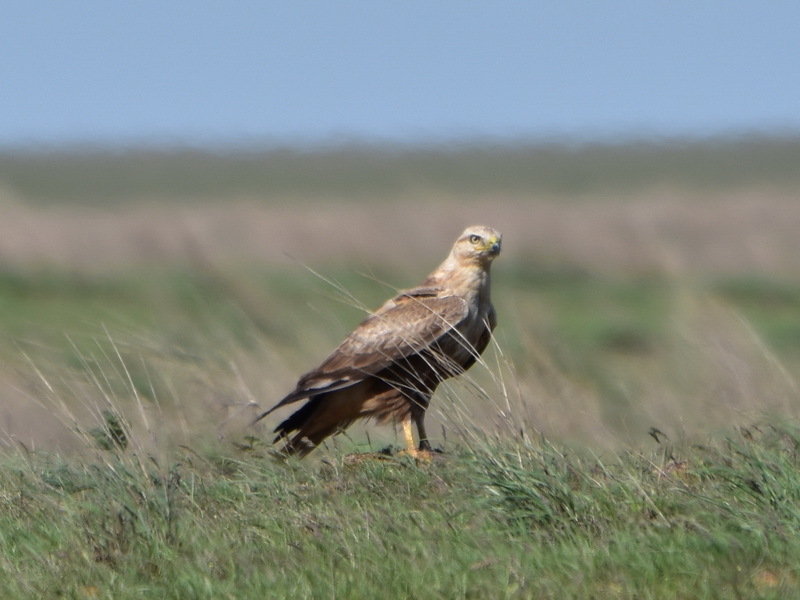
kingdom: Animalia
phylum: Chordata
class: Aves
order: Accipitriformes
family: Accipitridae
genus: Buteo
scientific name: Buteo rufinus
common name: Long-legged buzzard
